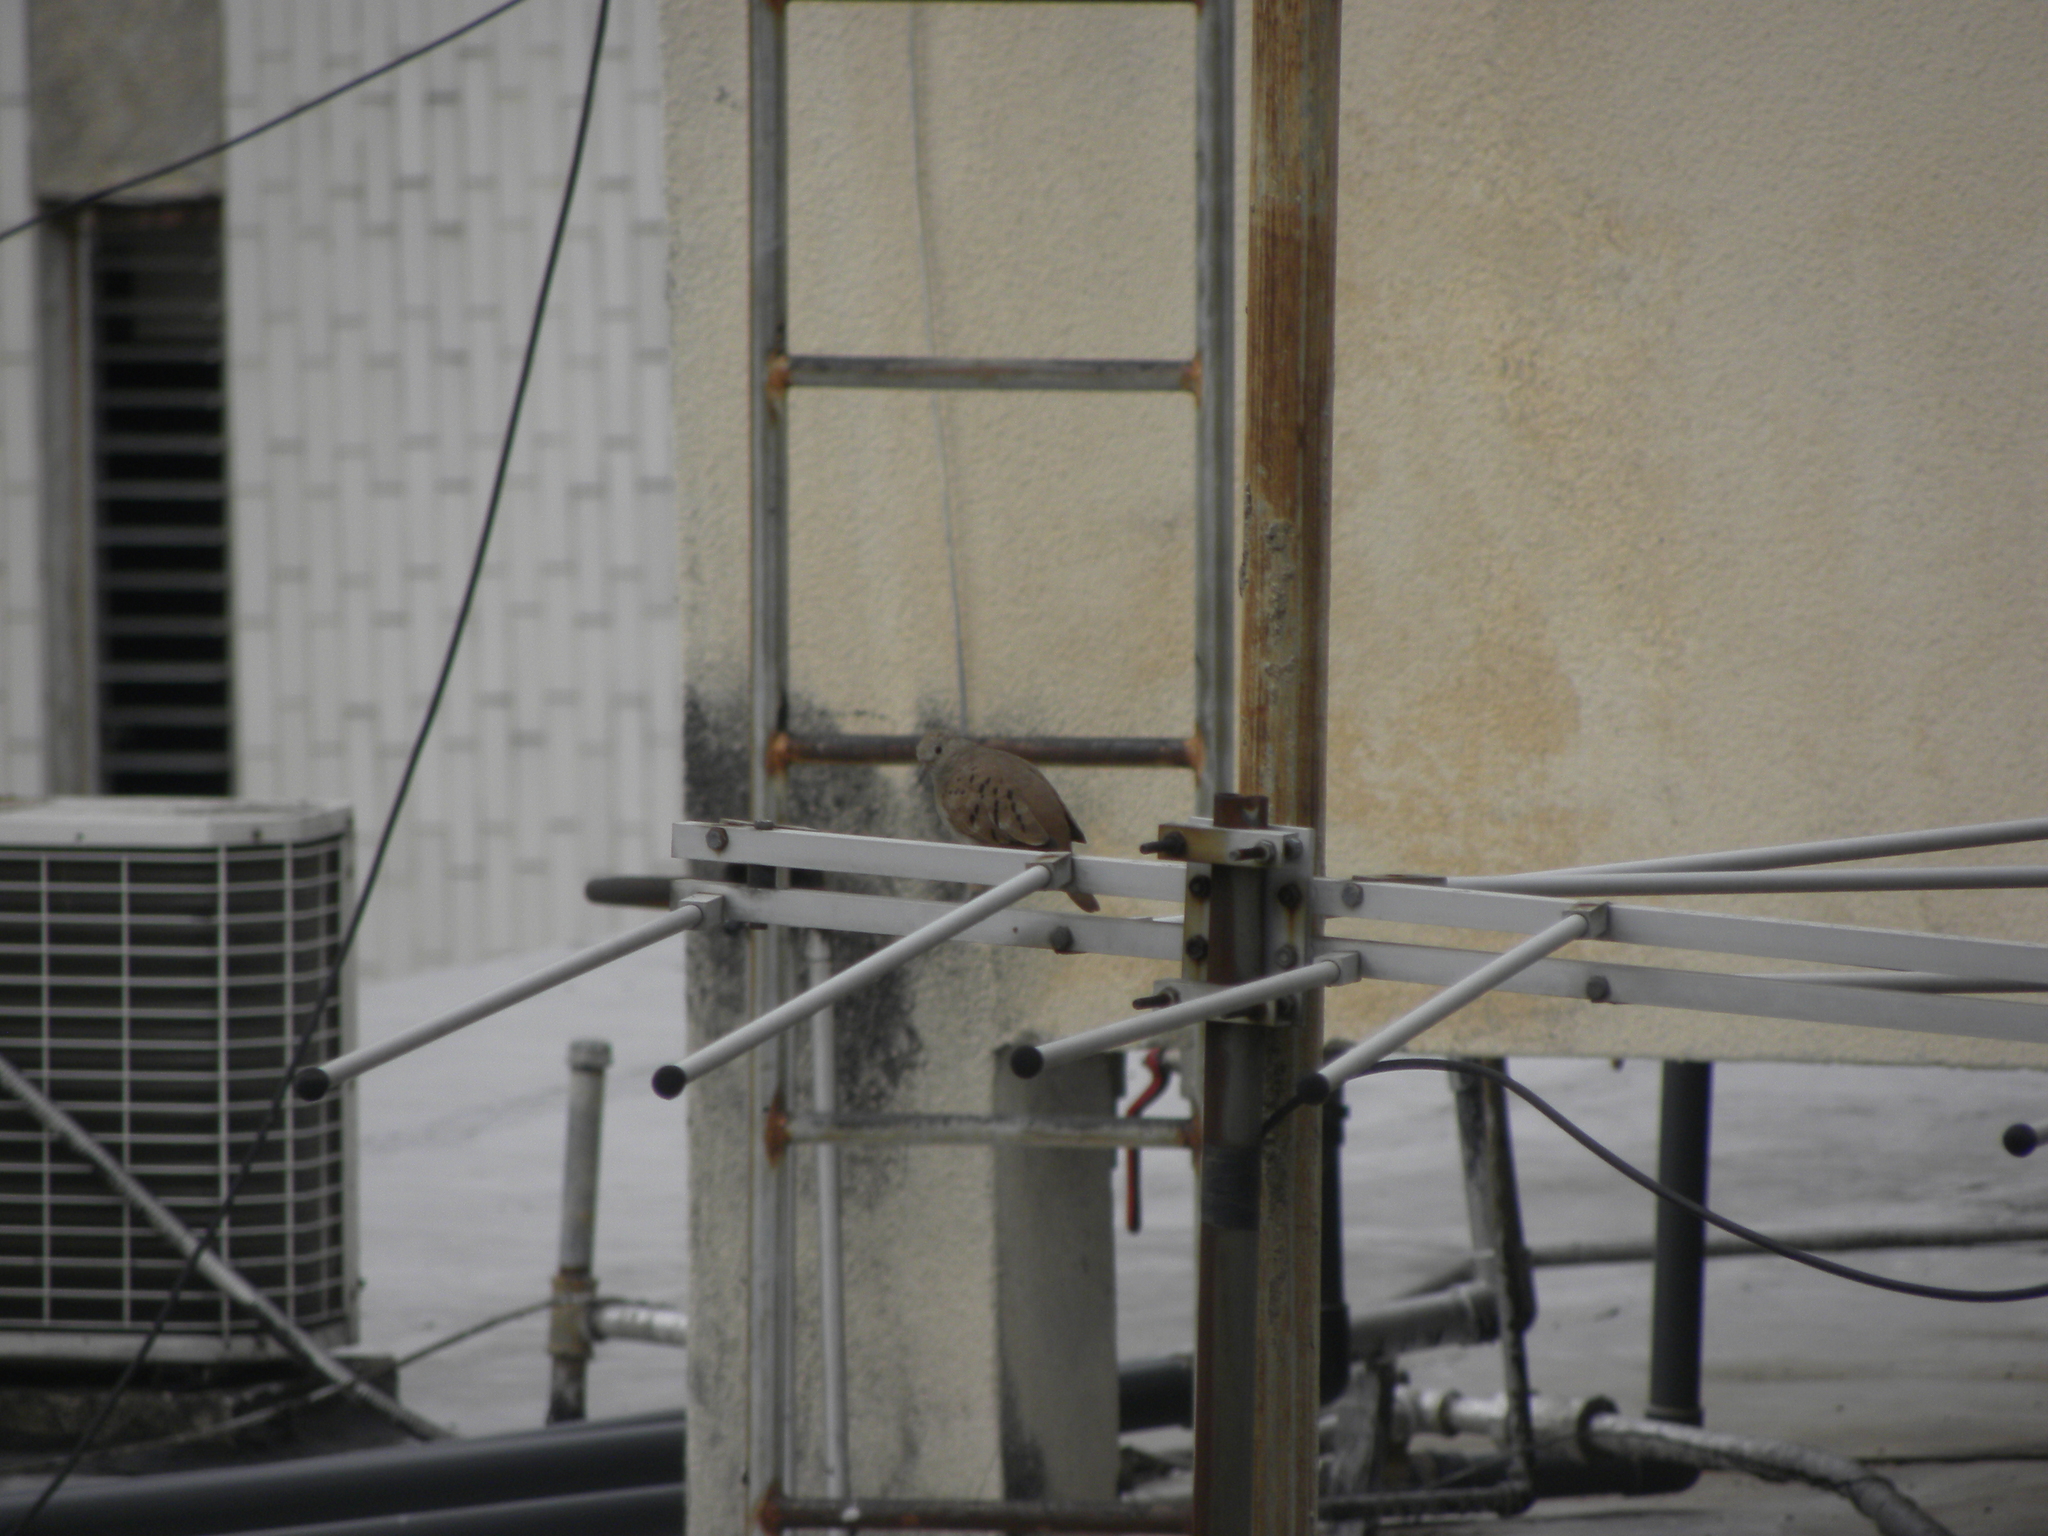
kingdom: Animalia
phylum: Chordata
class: Aves
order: Columbiformes
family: Columbidae
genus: Columbina
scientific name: Columbina talpacoti
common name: Ruddy ground dove
